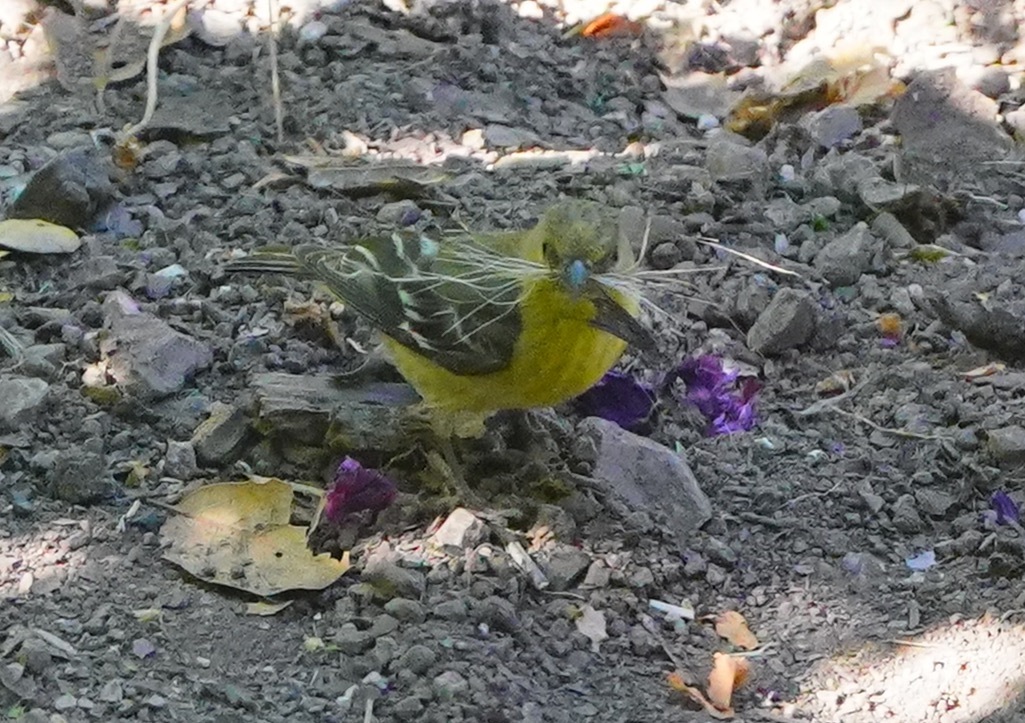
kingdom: Animalia
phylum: Chordata
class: Aves
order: Passeriformes
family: Fringillidae
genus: Spinus
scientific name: Spinus psaltria
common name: Lesser goldfinch
